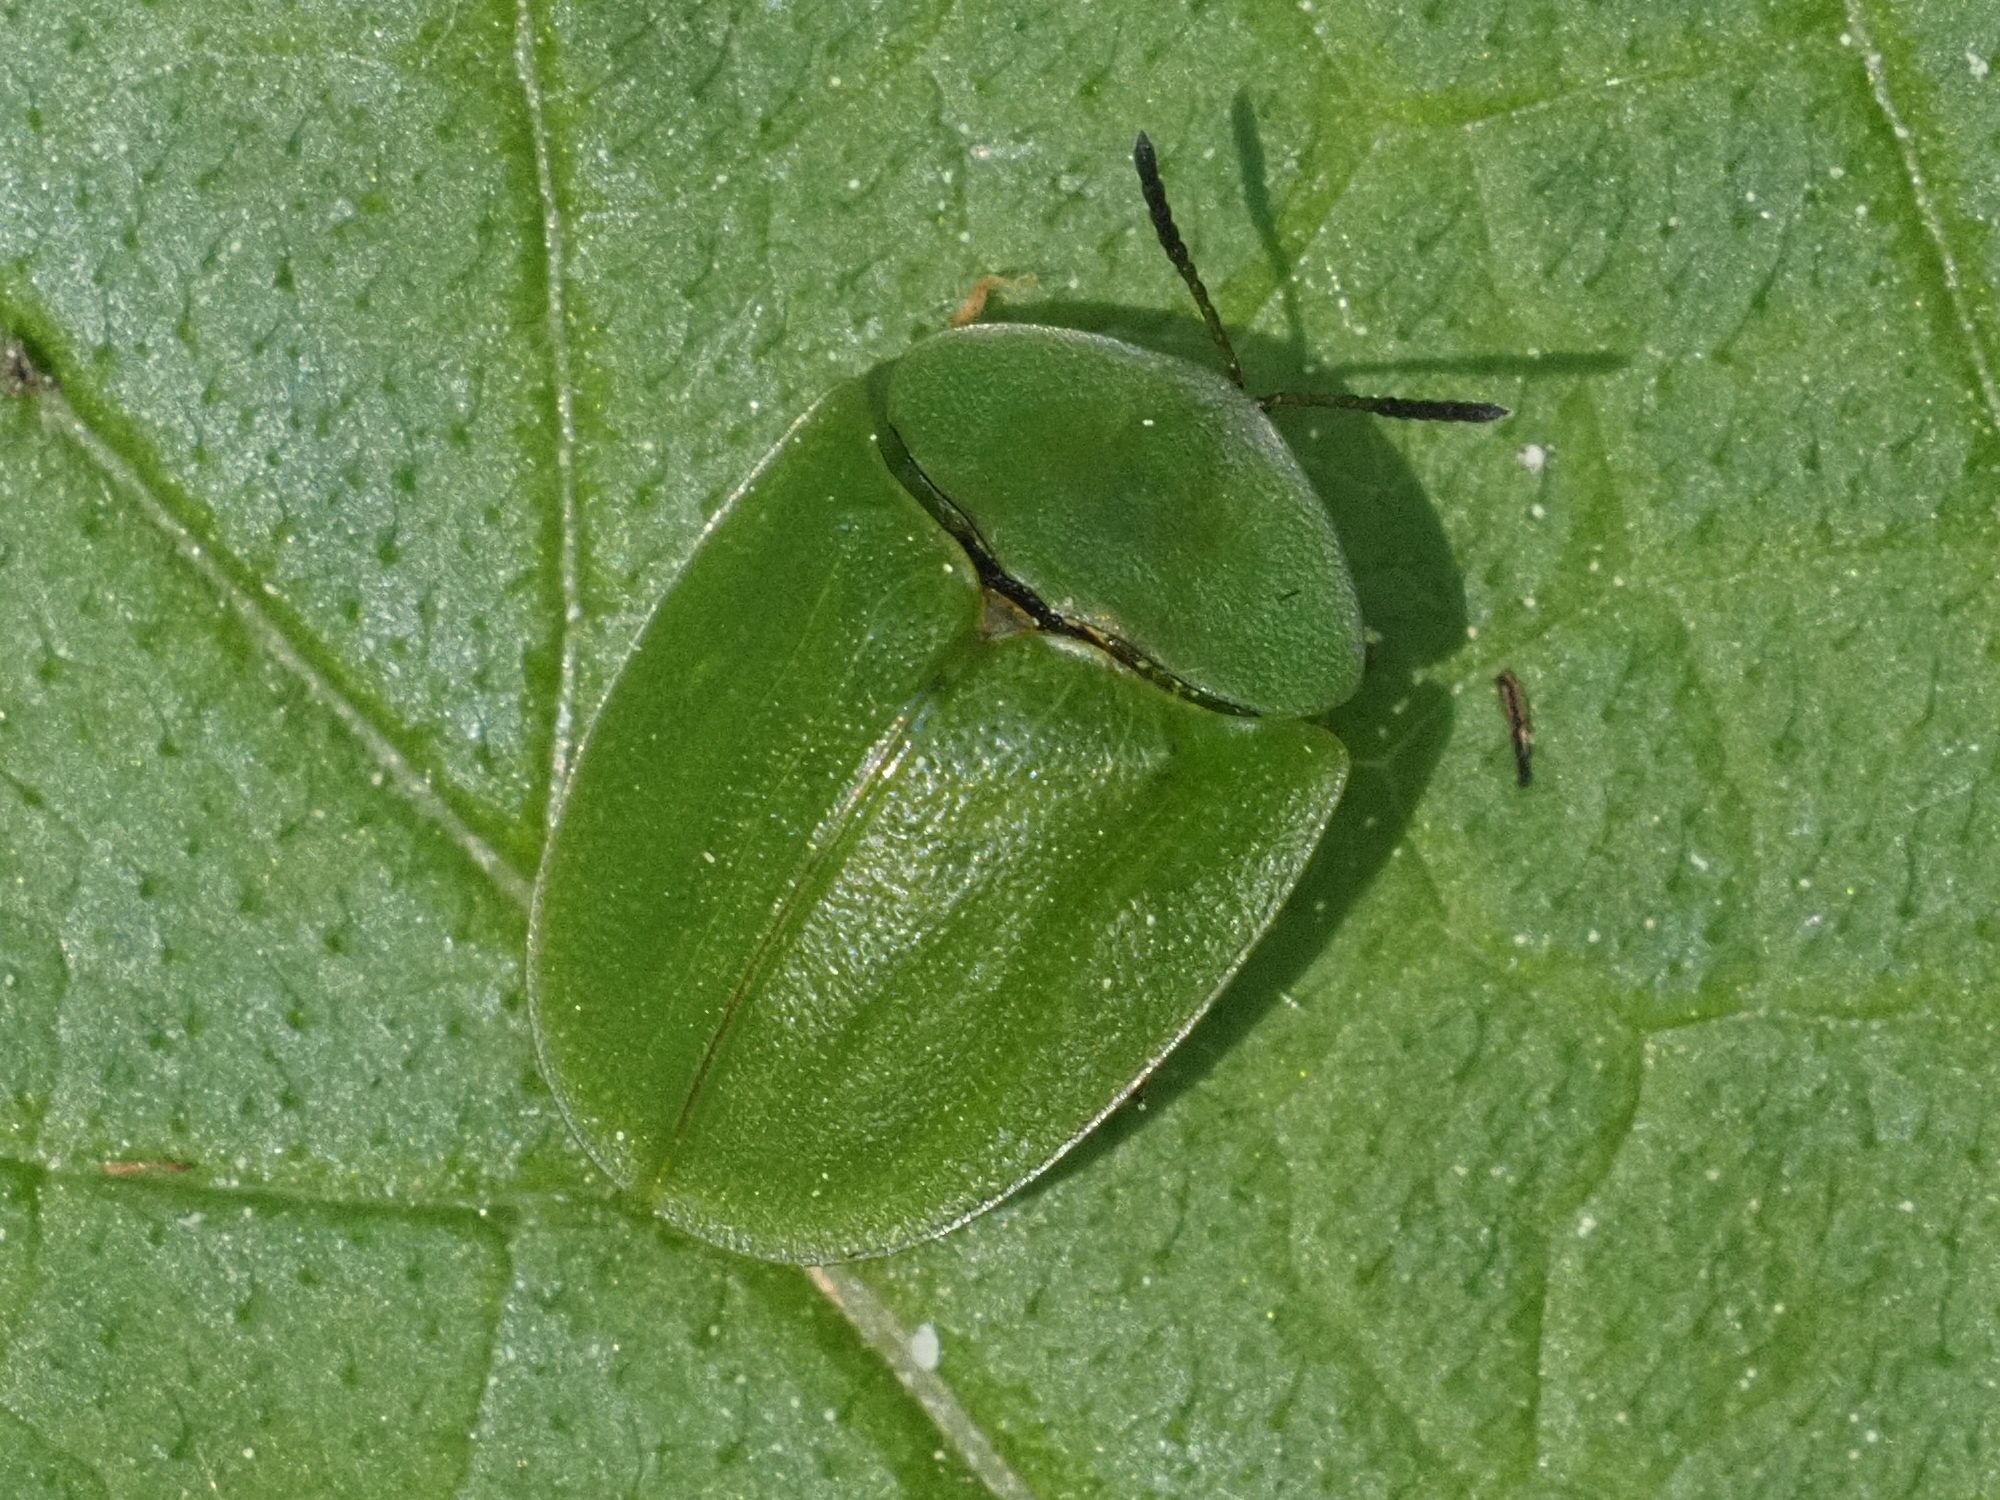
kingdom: Animalia
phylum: Arthropoda
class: Insecta
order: Coleoptera
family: Chrysomelidae
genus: Cassida
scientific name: Cassida viridis
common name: Green tortoise beetle
